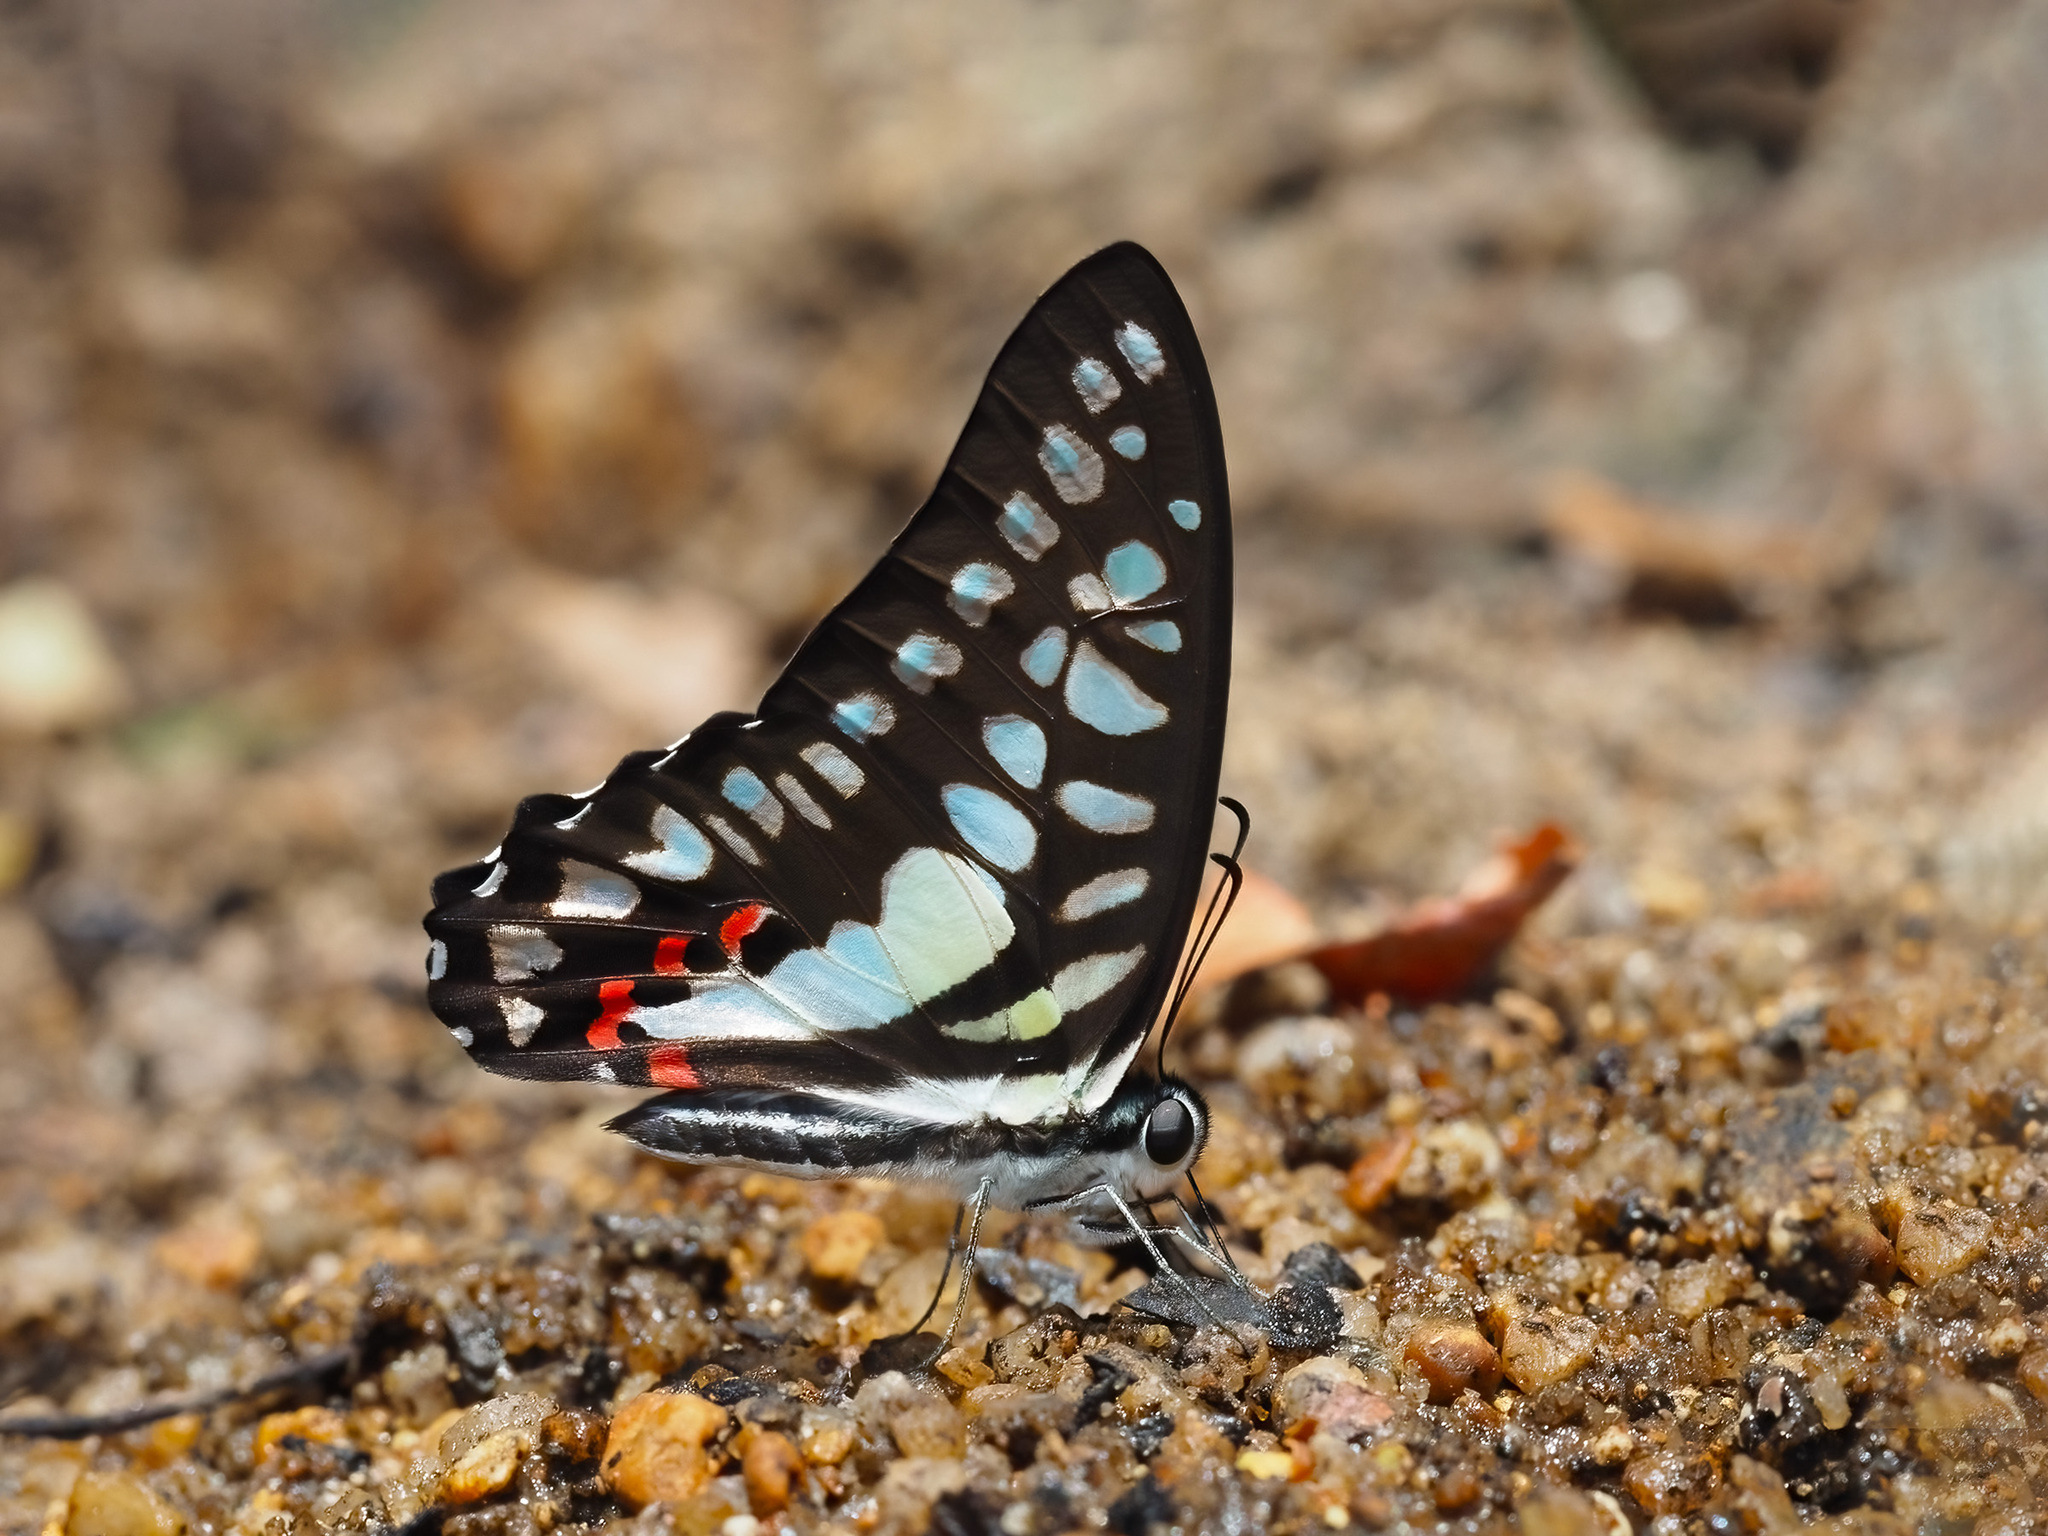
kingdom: Animalia
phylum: Arthropoda
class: Insecta
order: Lepidoptera
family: Papilionidae
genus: Graphium
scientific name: Graphium evemon
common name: Lesser jay
